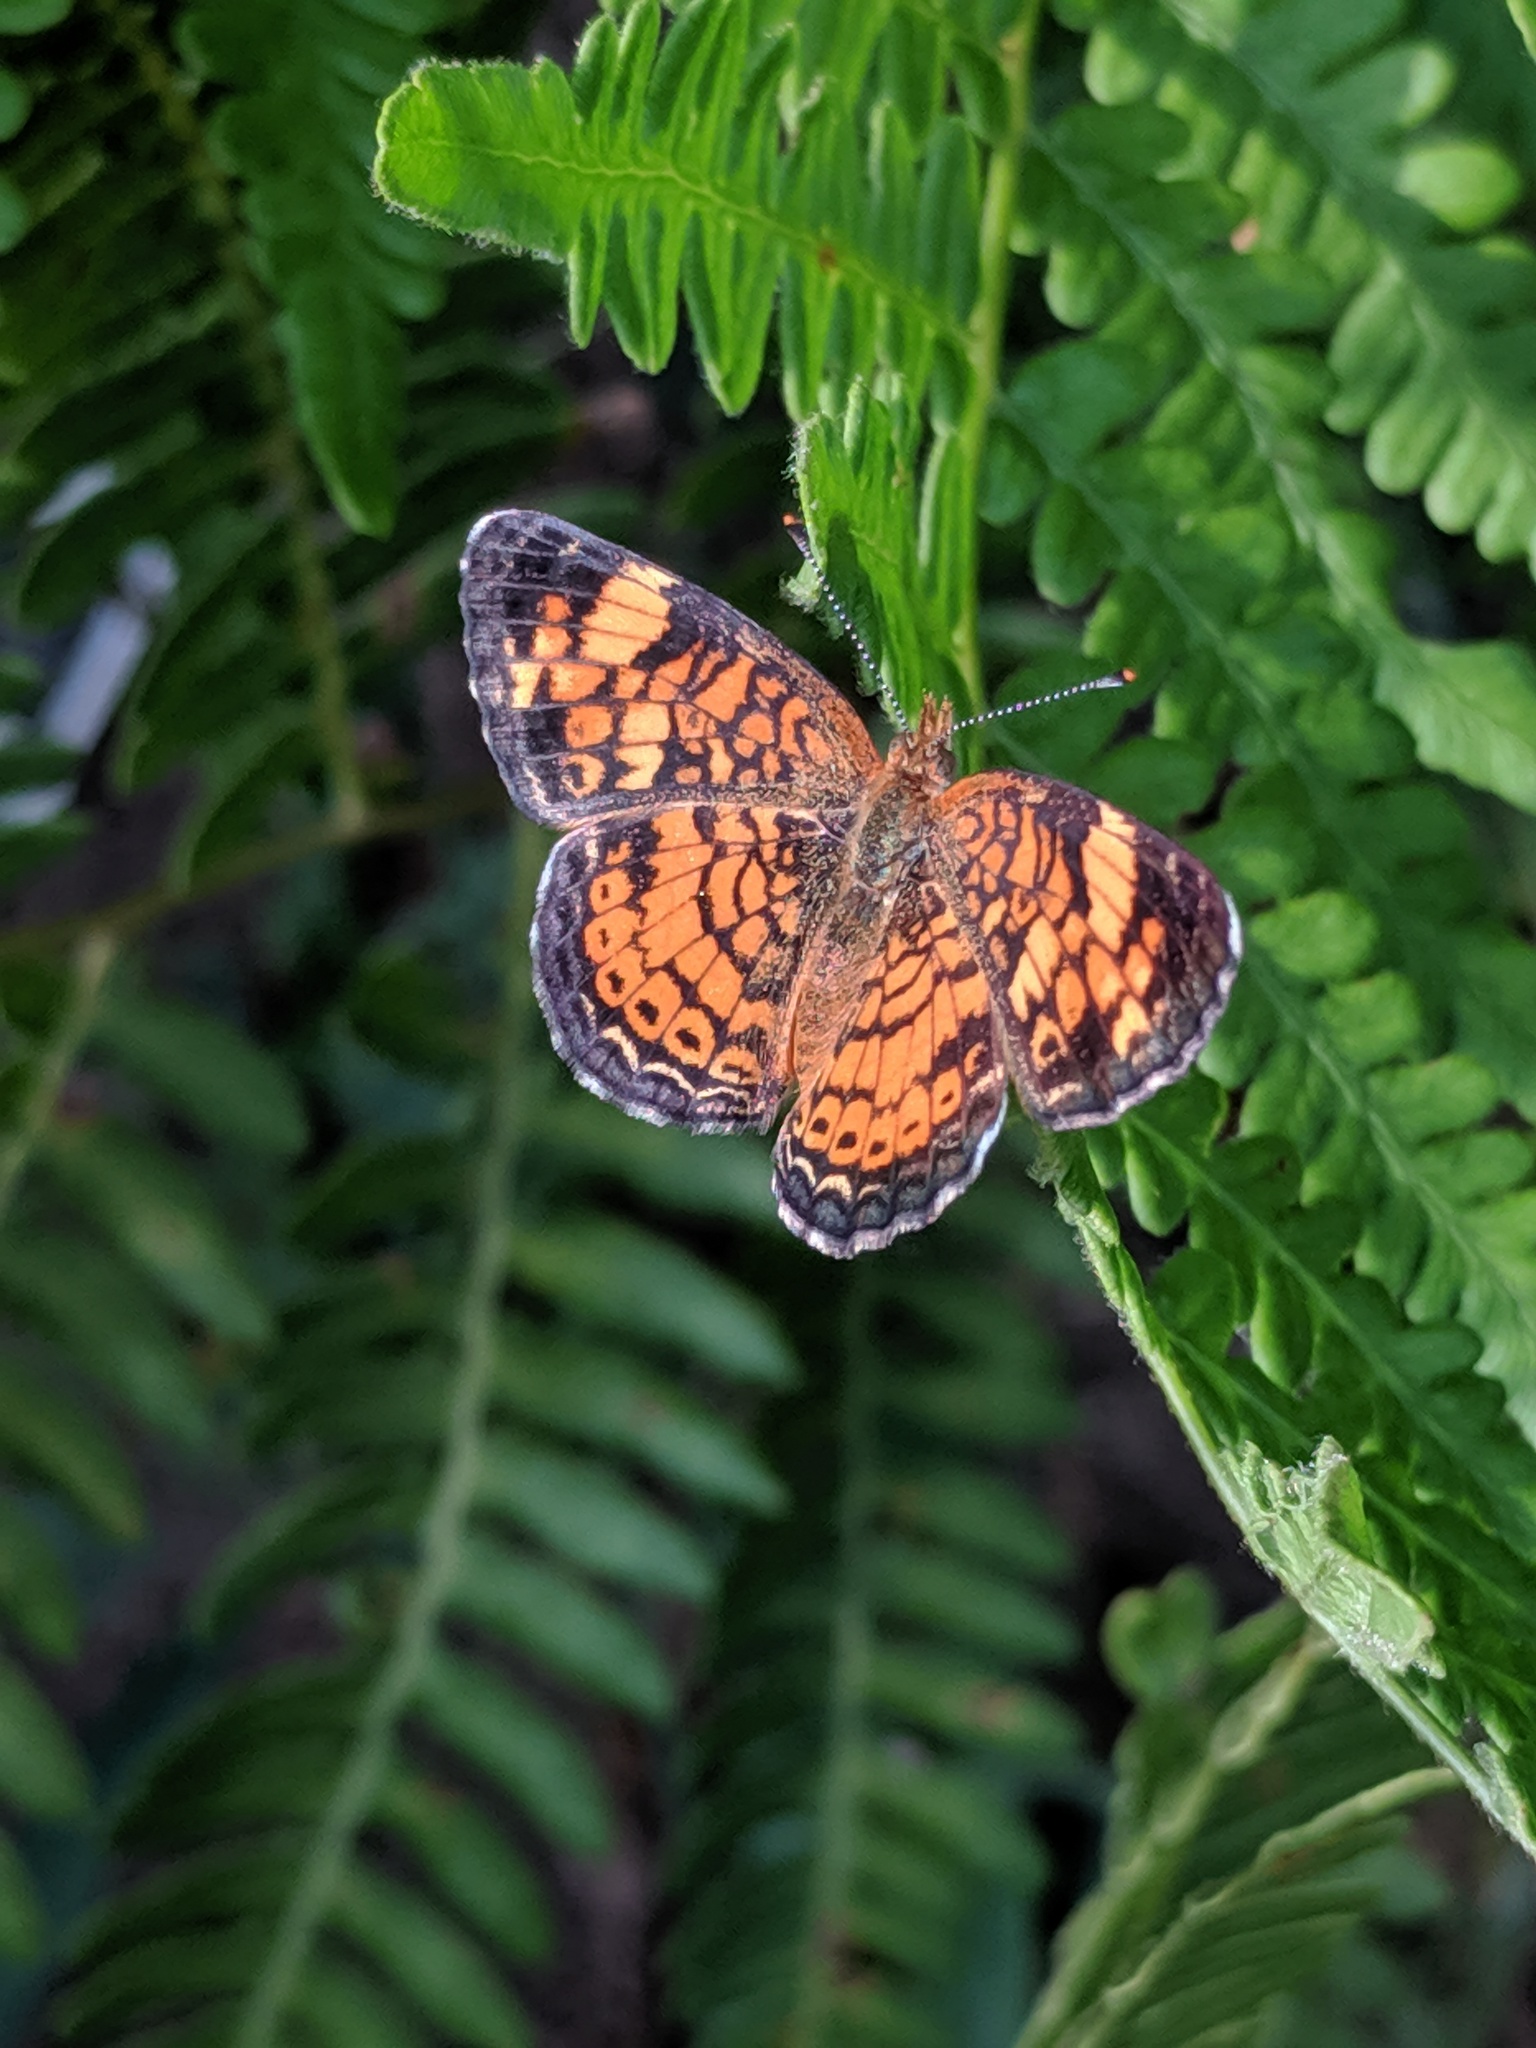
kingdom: Animalia
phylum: Arthropoda
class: Insecta
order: Lepidoptera
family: Nymphalidae
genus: Phyciodes
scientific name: Phyciodes tharos
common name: Pearl crescent
